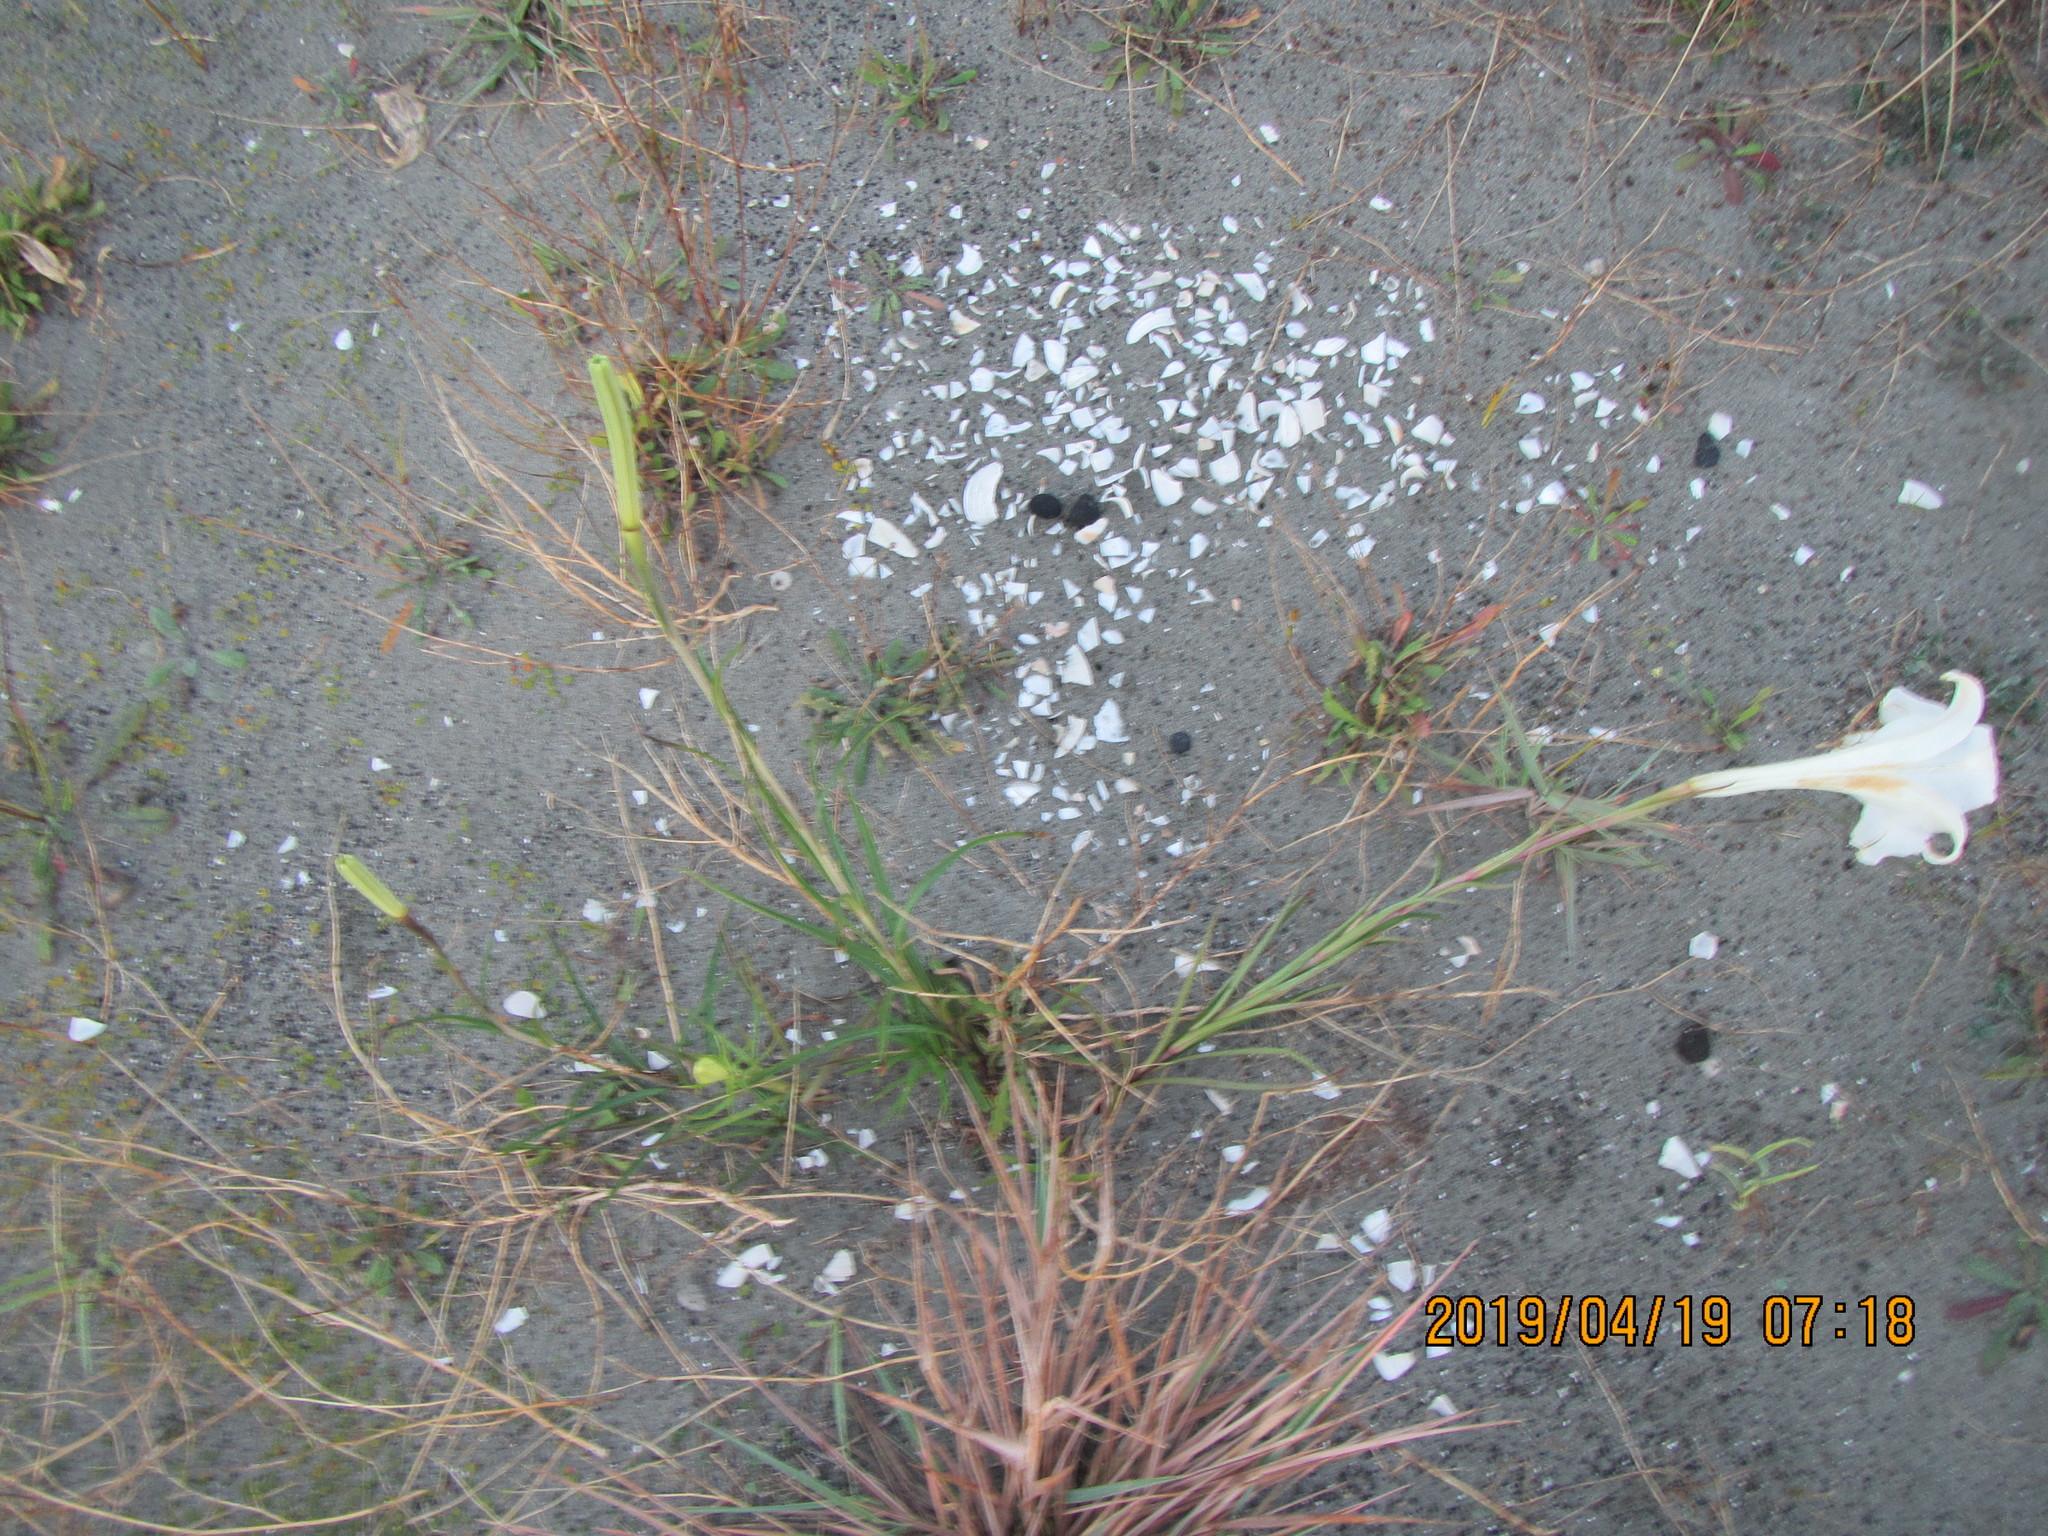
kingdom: Plantae
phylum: Tracheophyta
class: Liliopsida
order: Liliales
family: Liliaceae
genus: Lilium
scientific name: Lilium formosanum
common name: Formosa lily
